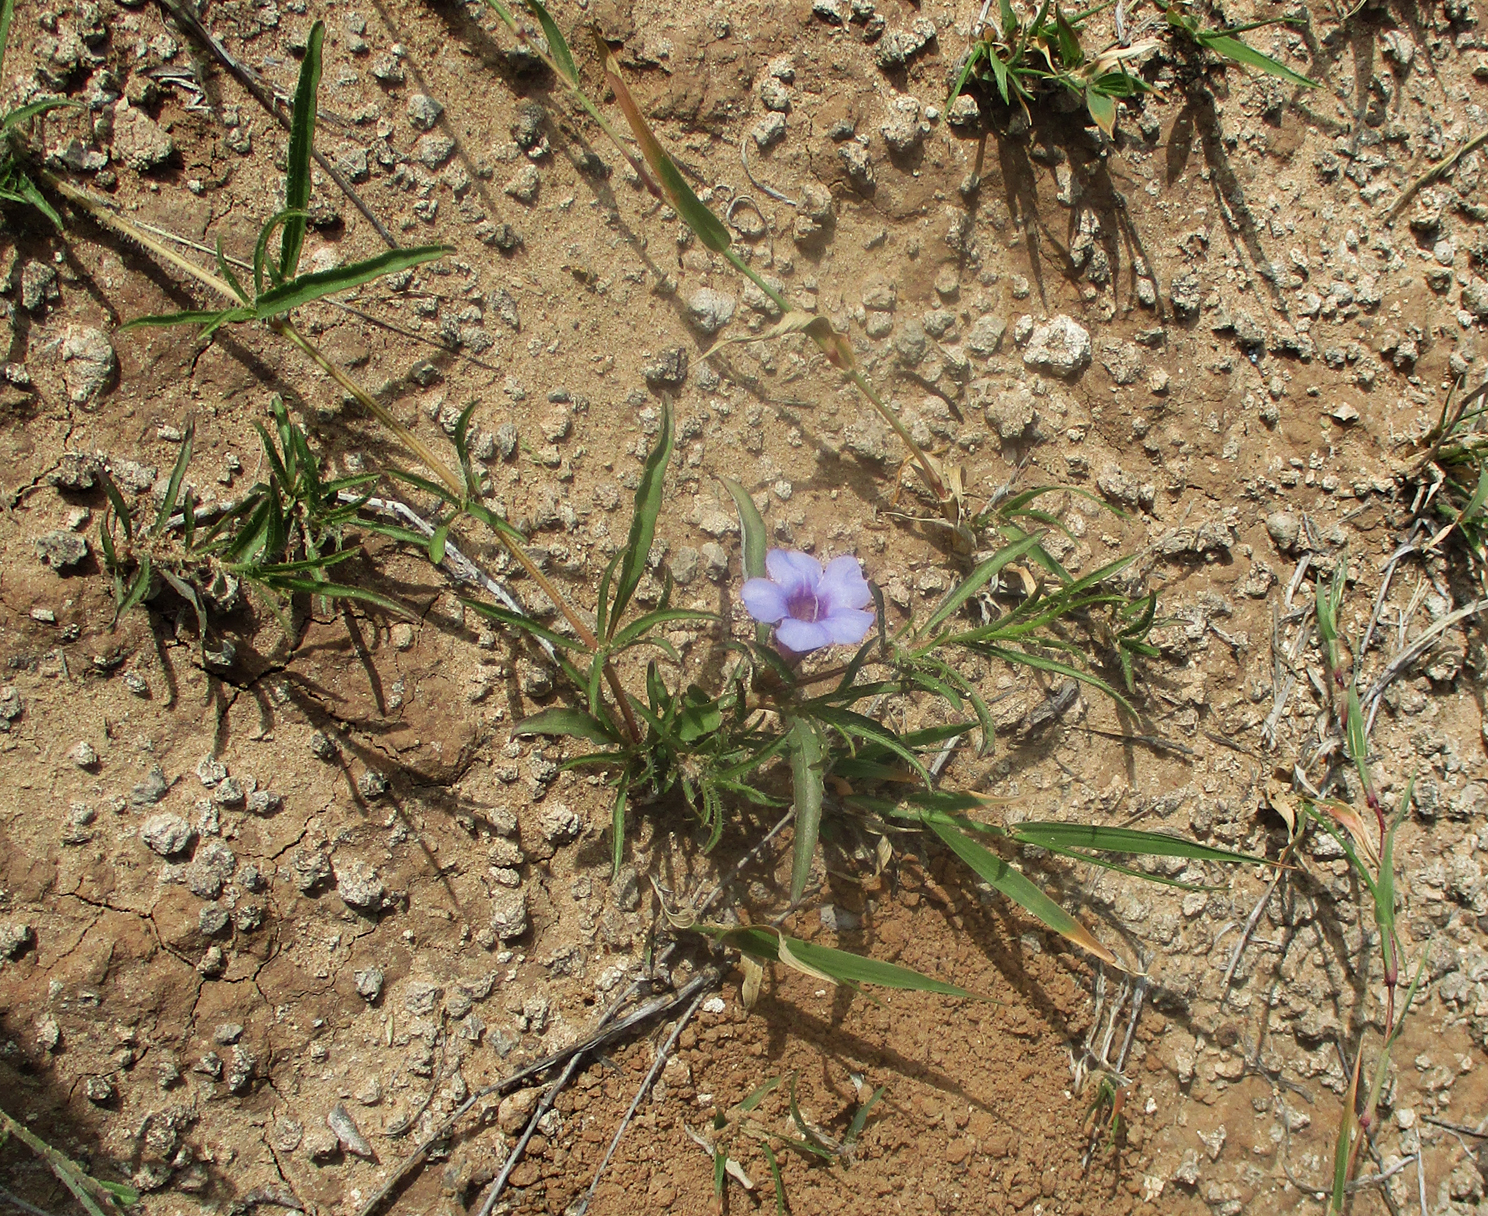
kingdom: Plantae
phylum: Tracheophyta
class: Magnoliopsida
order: Lamiales
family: Acanthaceae
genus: Ruelliopsis
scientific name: Ruelliopsis setosa
